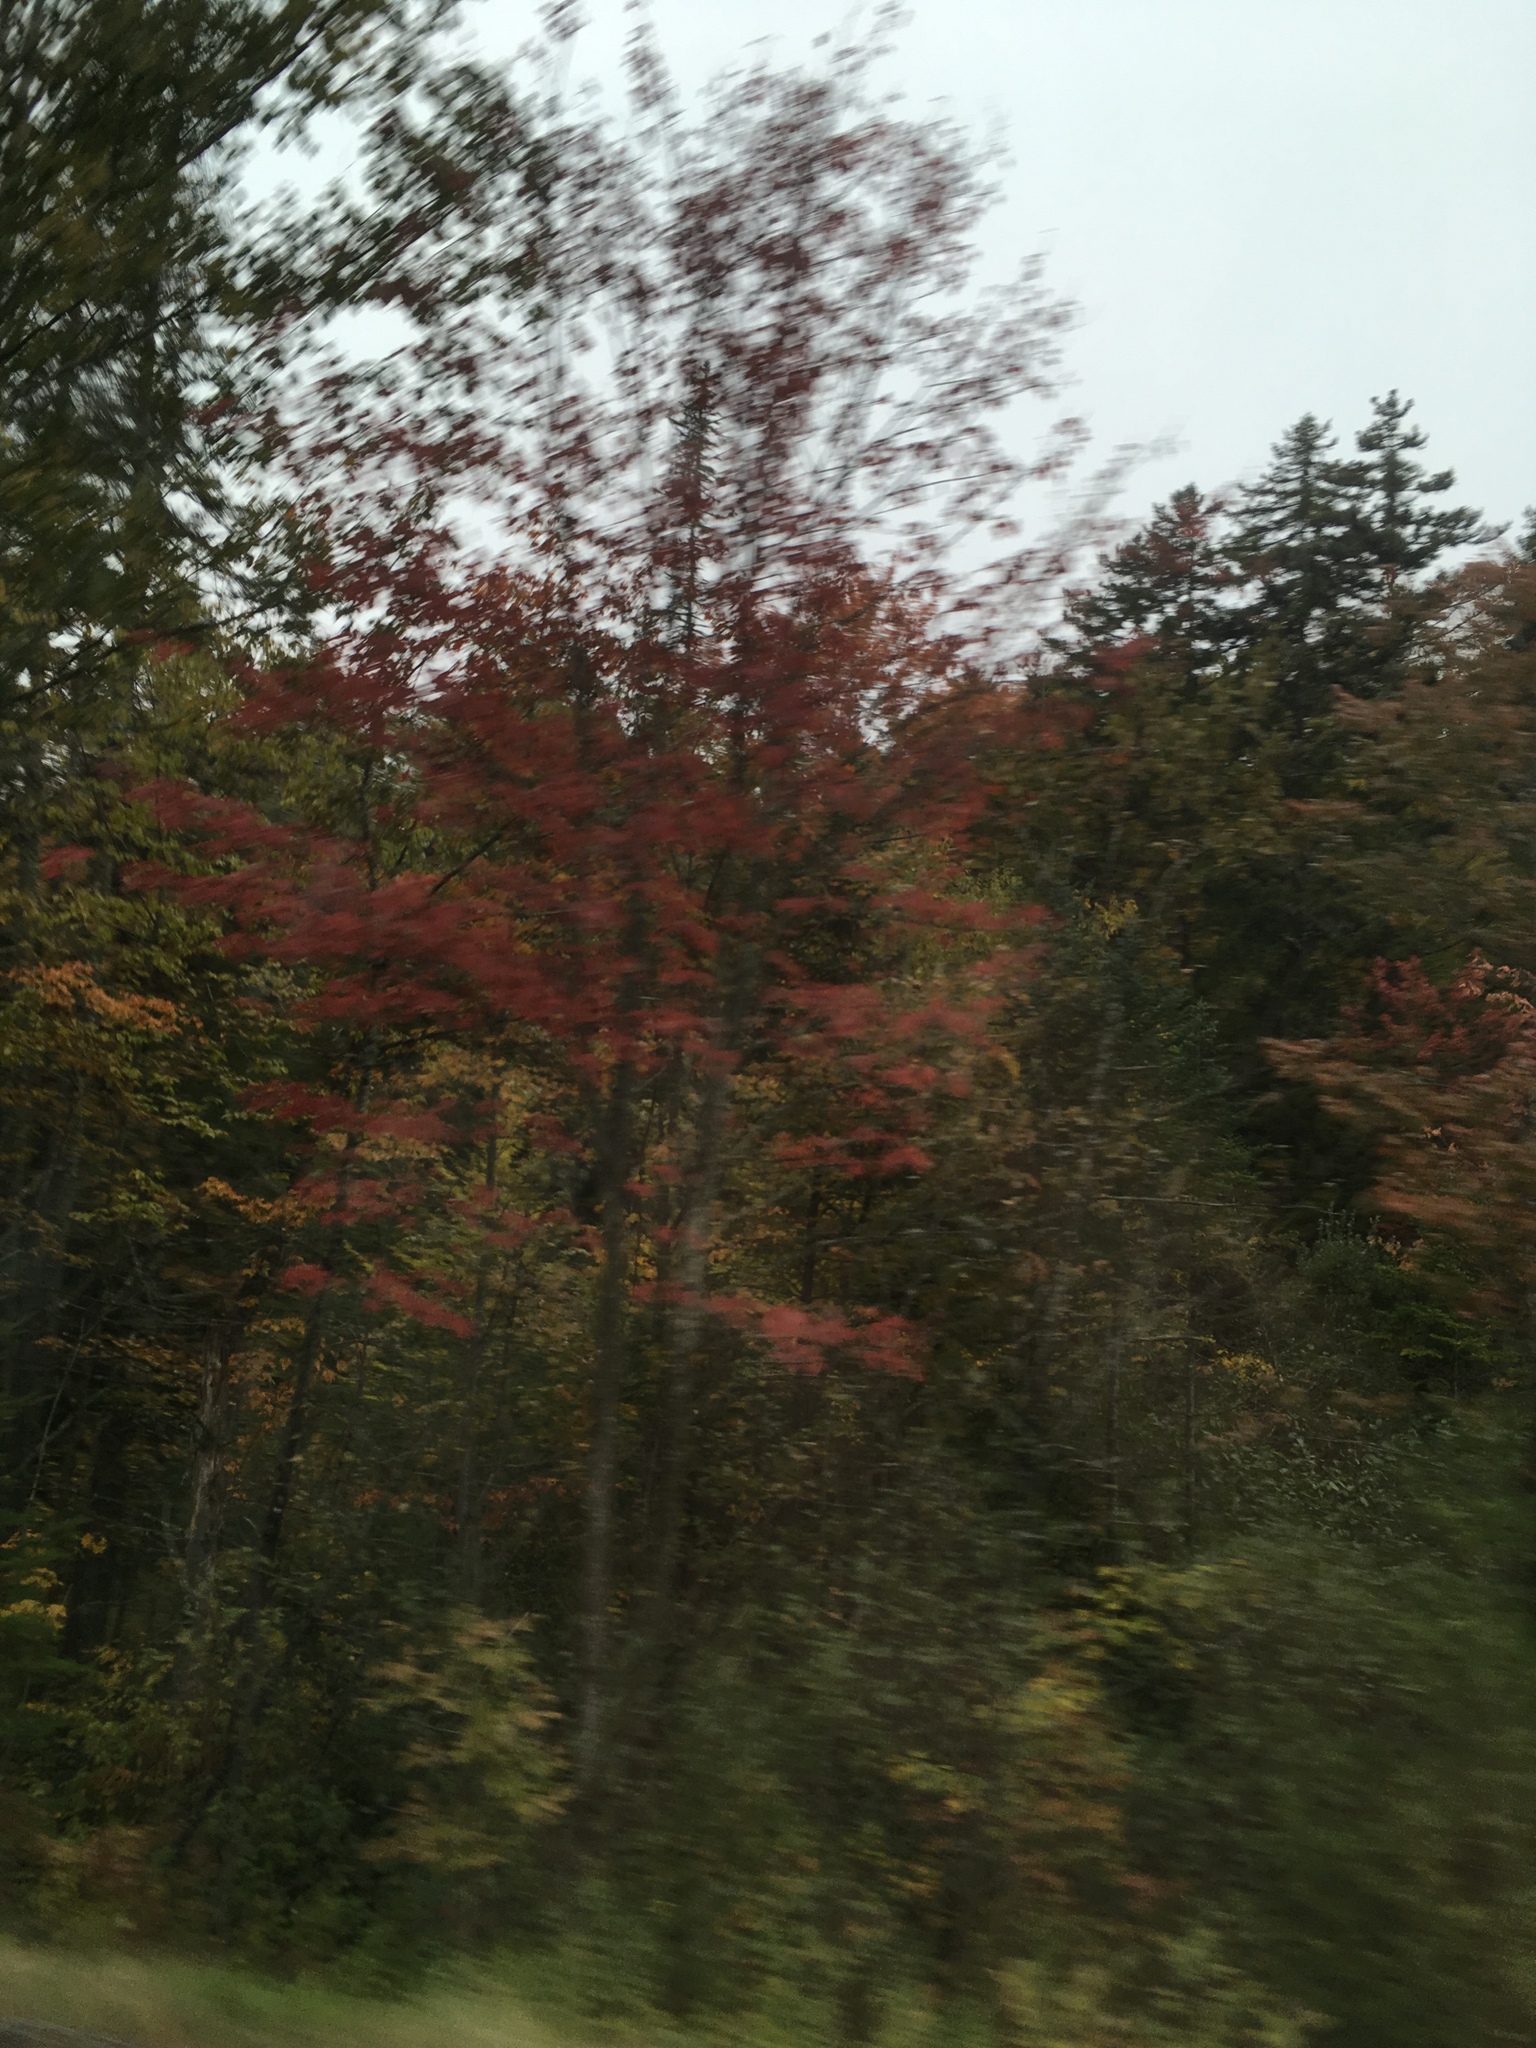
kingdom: Plantae
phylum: Tracheophyta
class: Magnoliopsida
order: Sapindales
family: Sapindaceae
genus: Acer
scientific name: Acer rubrum
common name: Red maple
